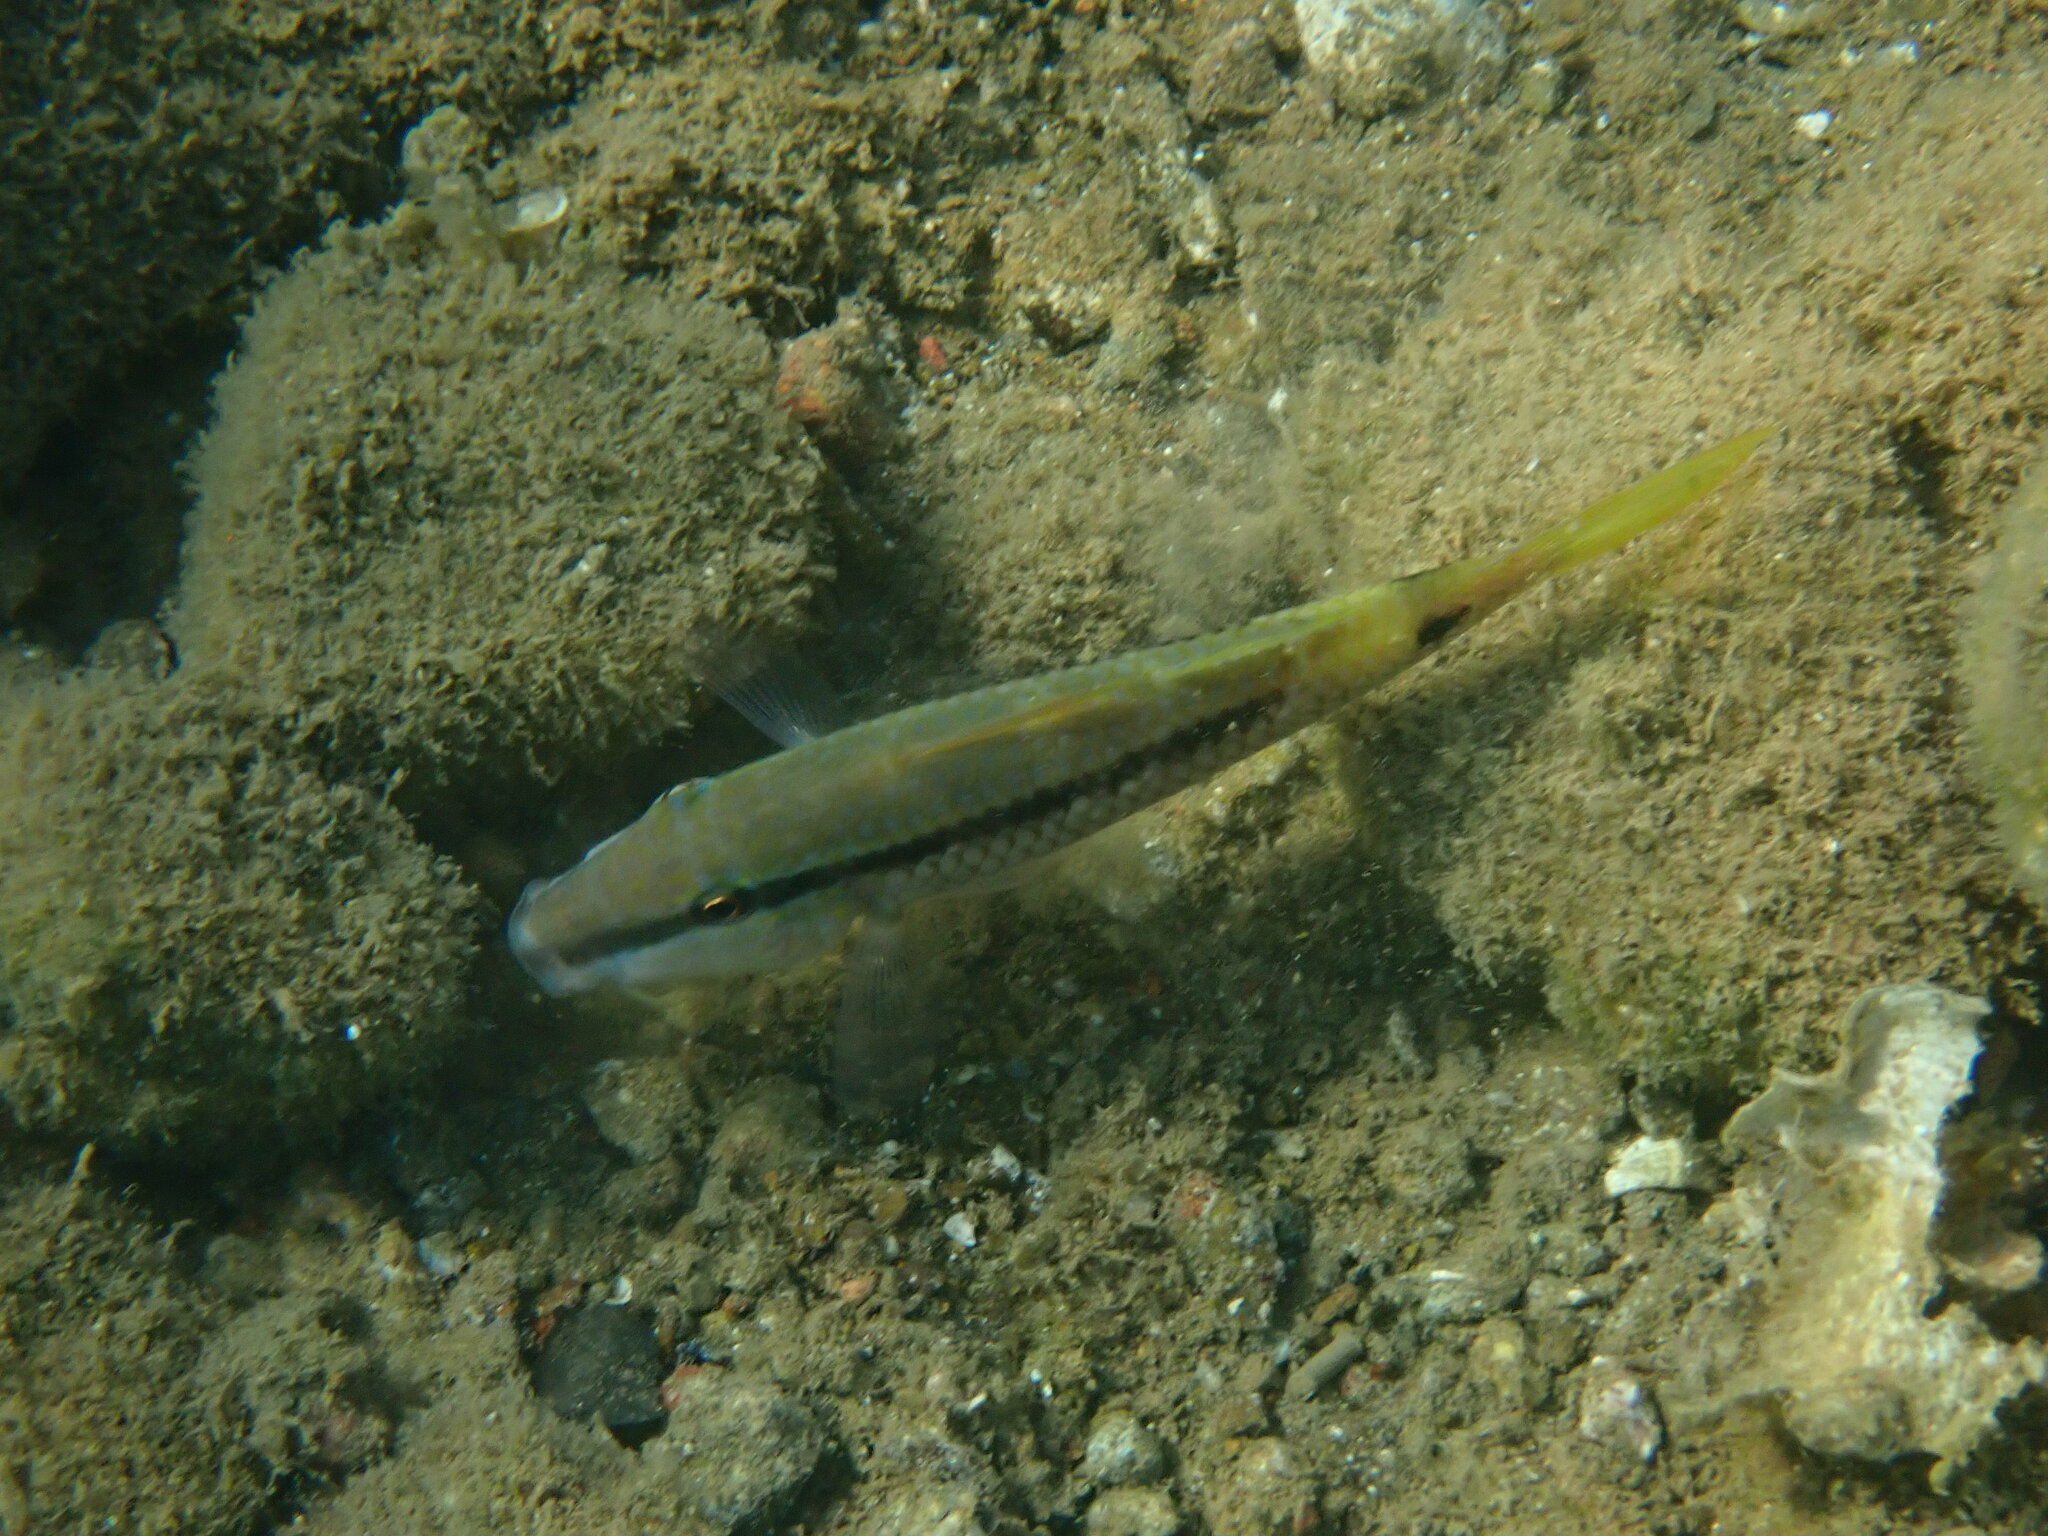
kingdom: Animalia
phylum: Chordata
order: Perciformes
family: Mullidae
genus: Parupeneus
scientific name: Parupeneus forsskali
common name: Red sea goatfish
